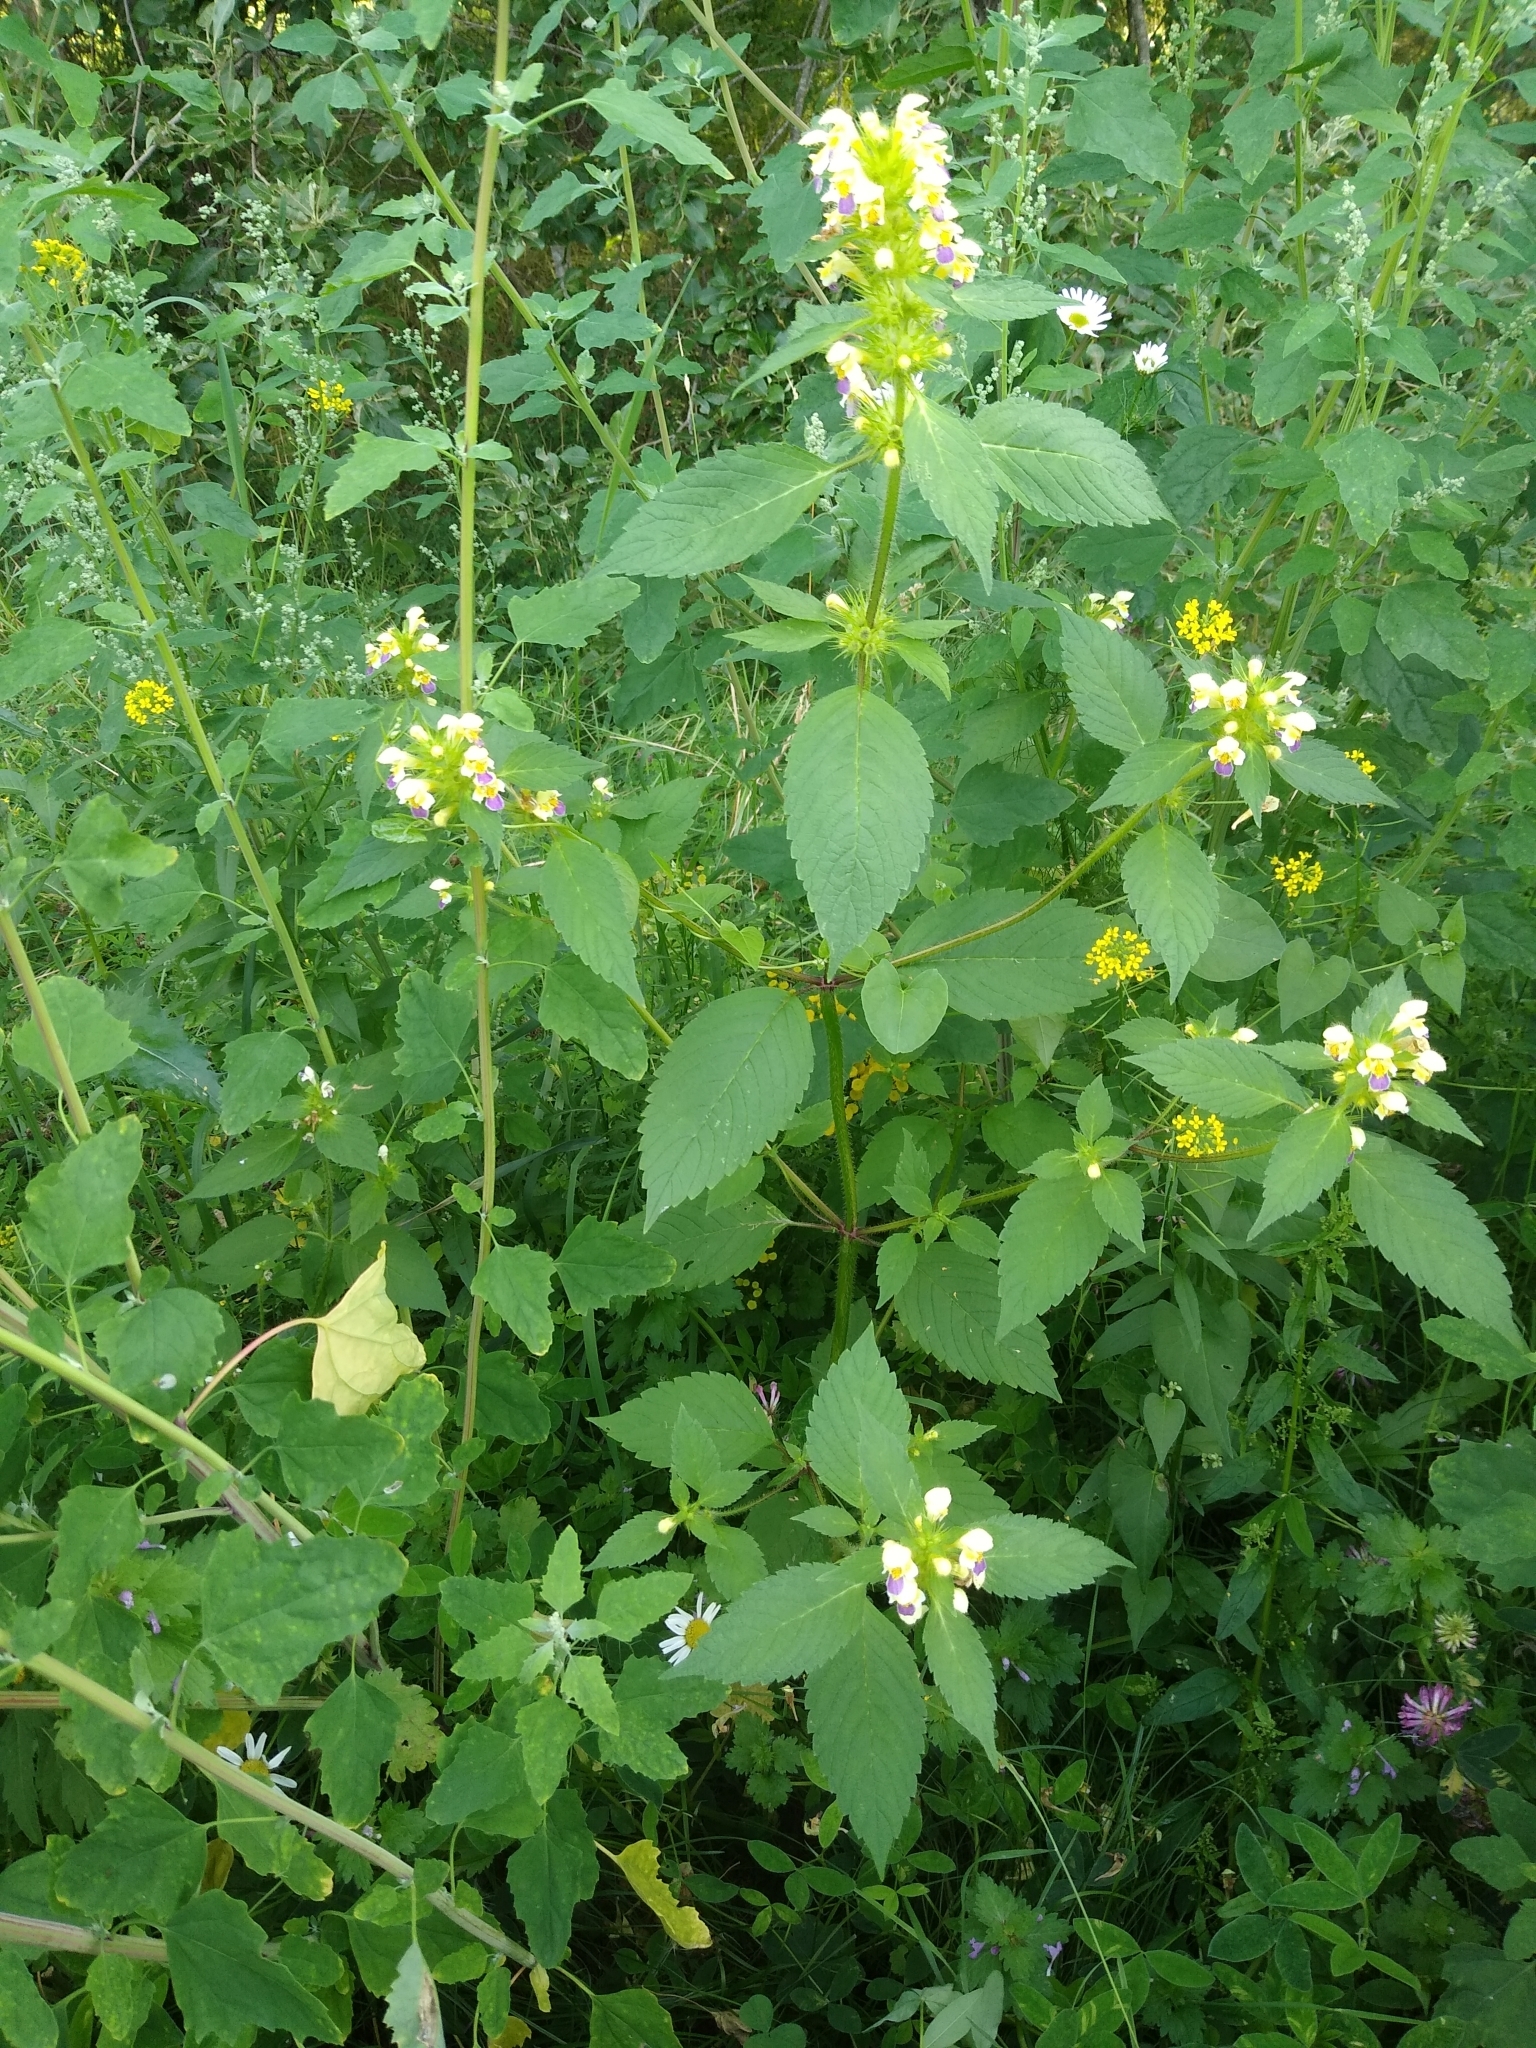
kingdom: Plantae
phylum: Tracheophyta
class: Magnoliopsida
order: Lamiales
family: Lamiaceae
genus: Galeopsis
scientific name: Galeopsis speciosa
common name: Large-flowered hemp-nettle
